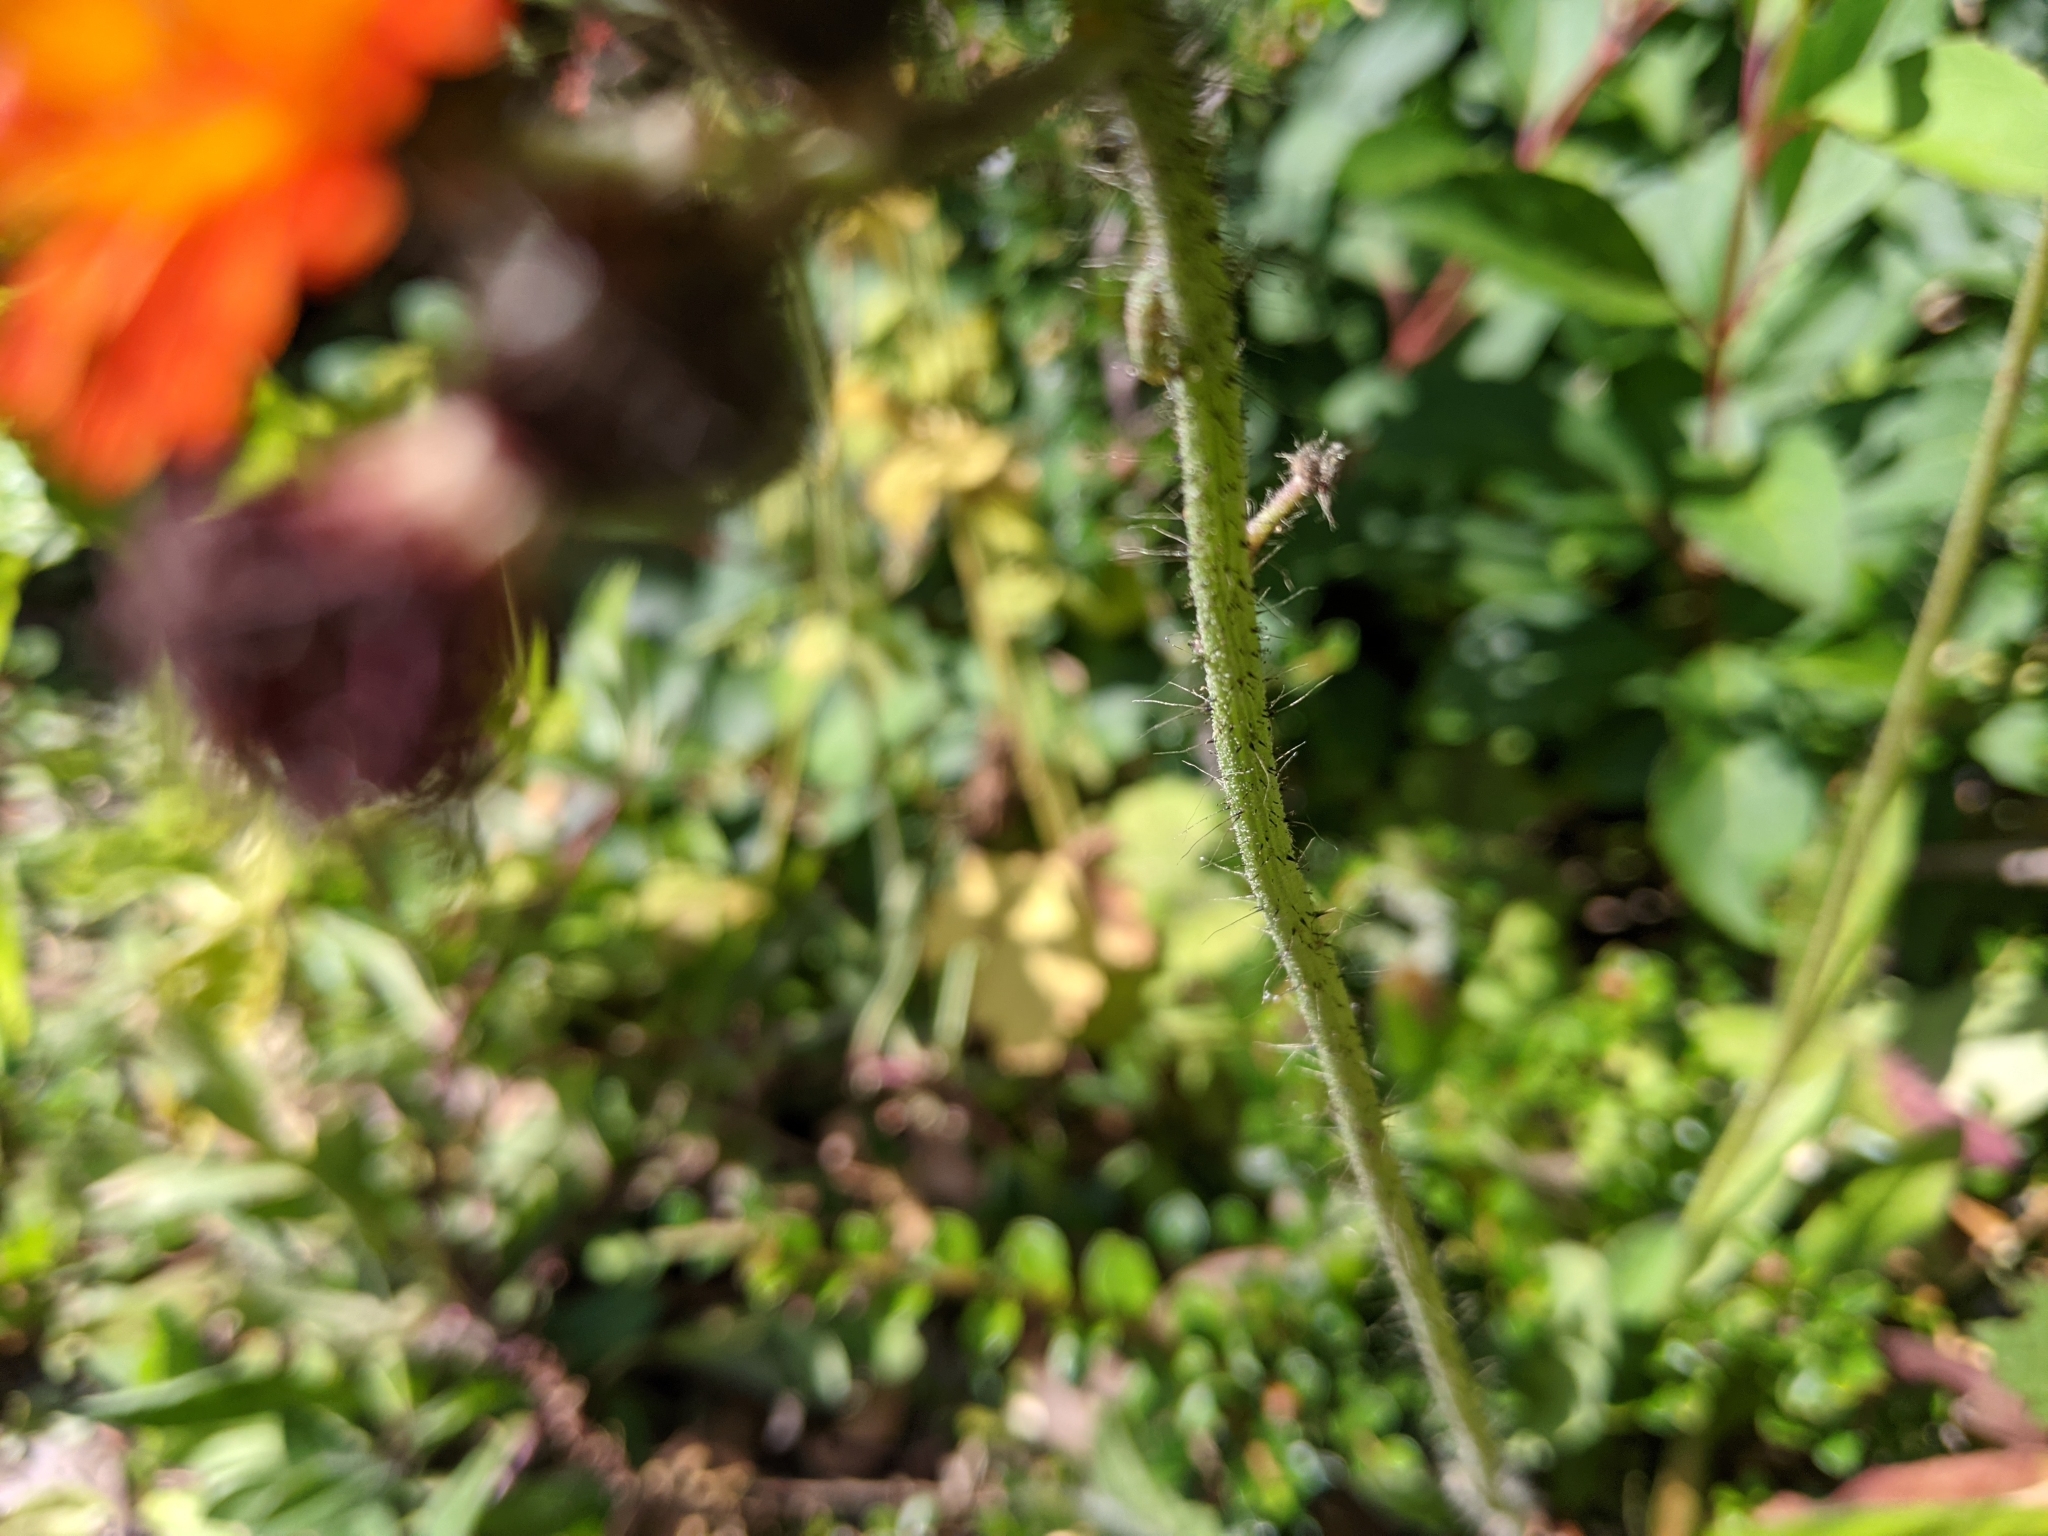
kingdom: Plantae
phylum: Tracheophyta
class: Magnoliopsida
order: Asterales
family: Asteraceae
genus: Pilosella
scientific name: Pilosella aurantiaca
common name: Fox-and-cubs
